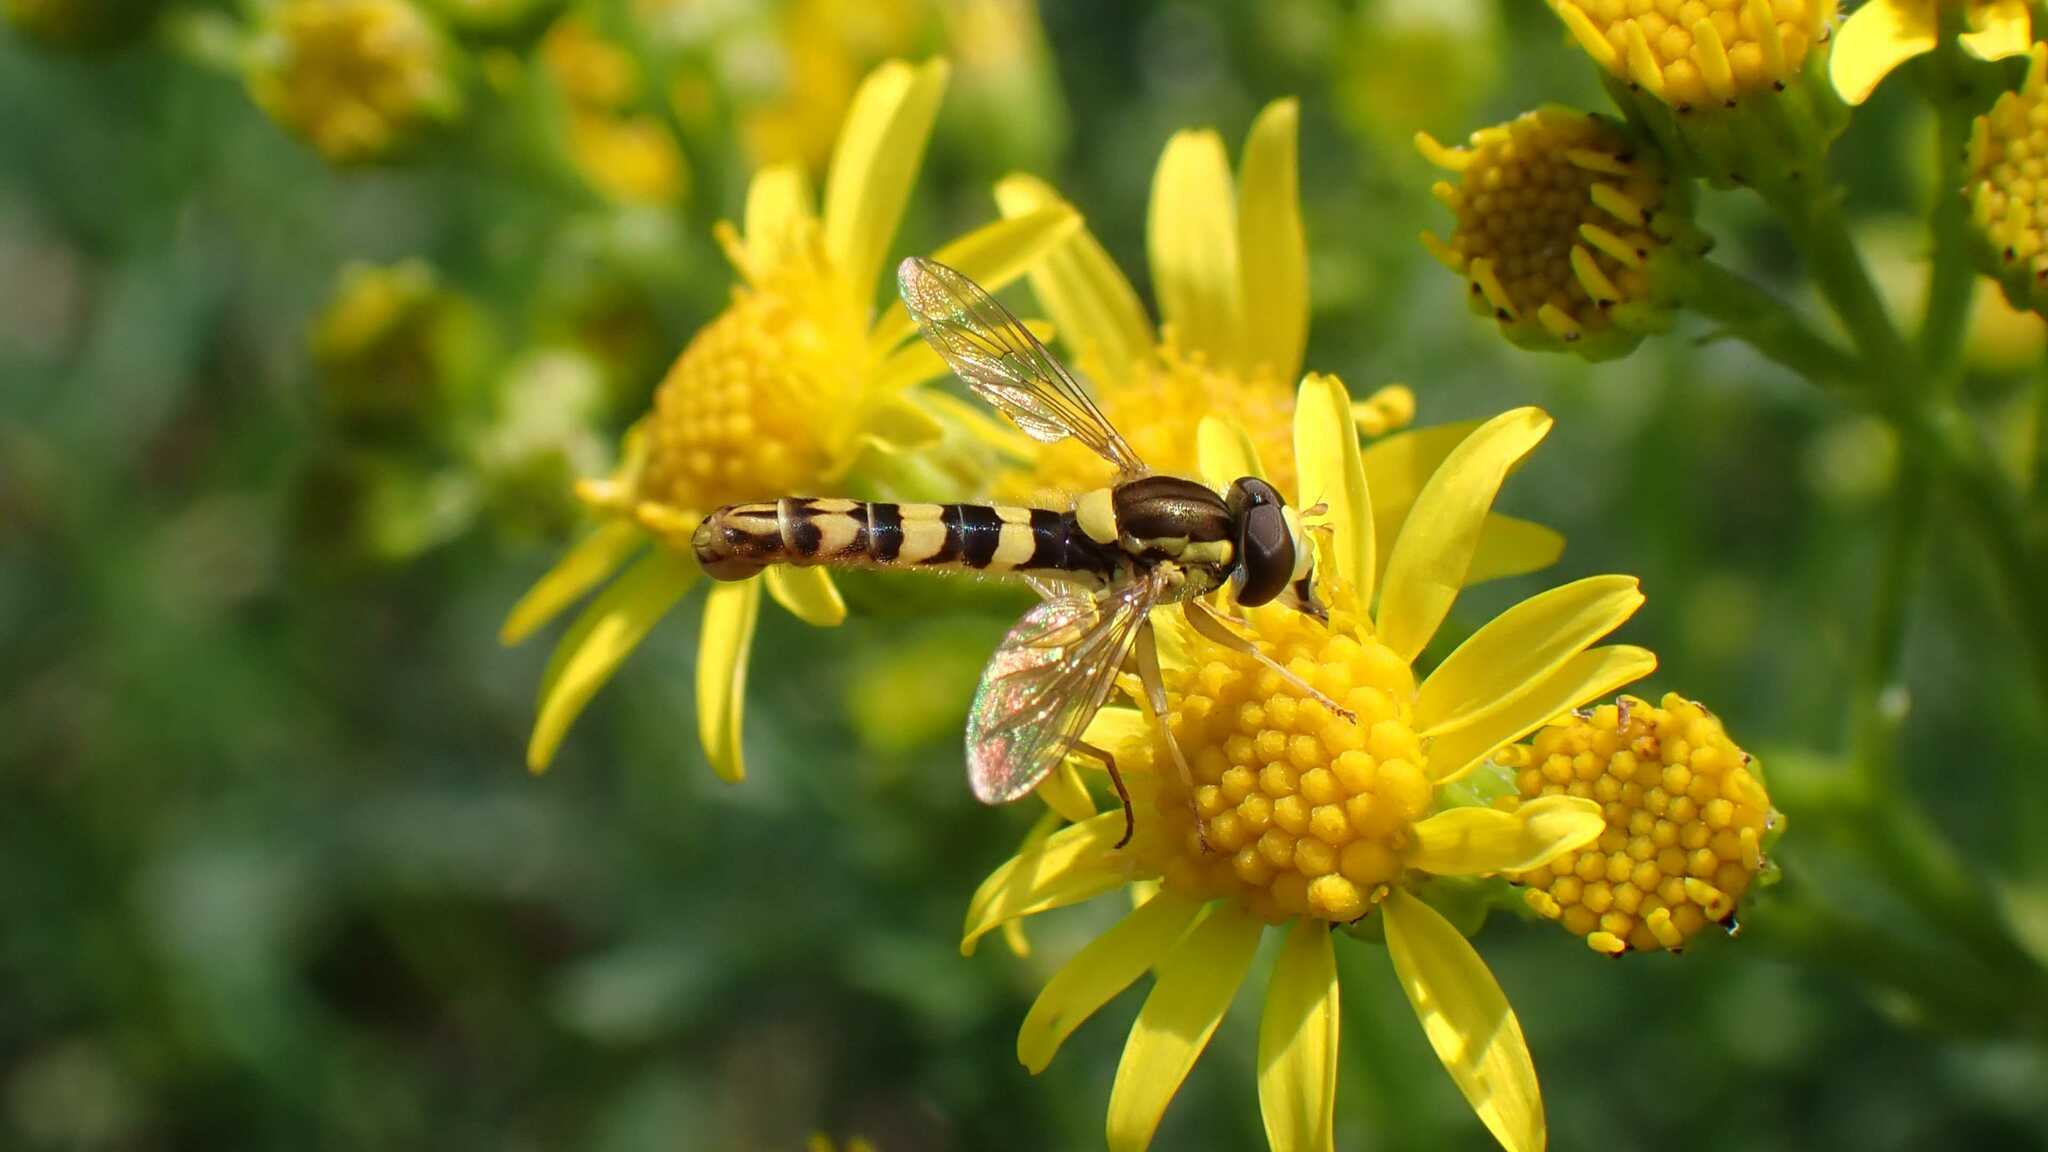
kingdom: Animalia
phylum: Arthropoda
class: Insecta
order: Diptera
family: Syrphidae
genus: Sphaerophoria
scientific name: Sphaerophoria scripta
